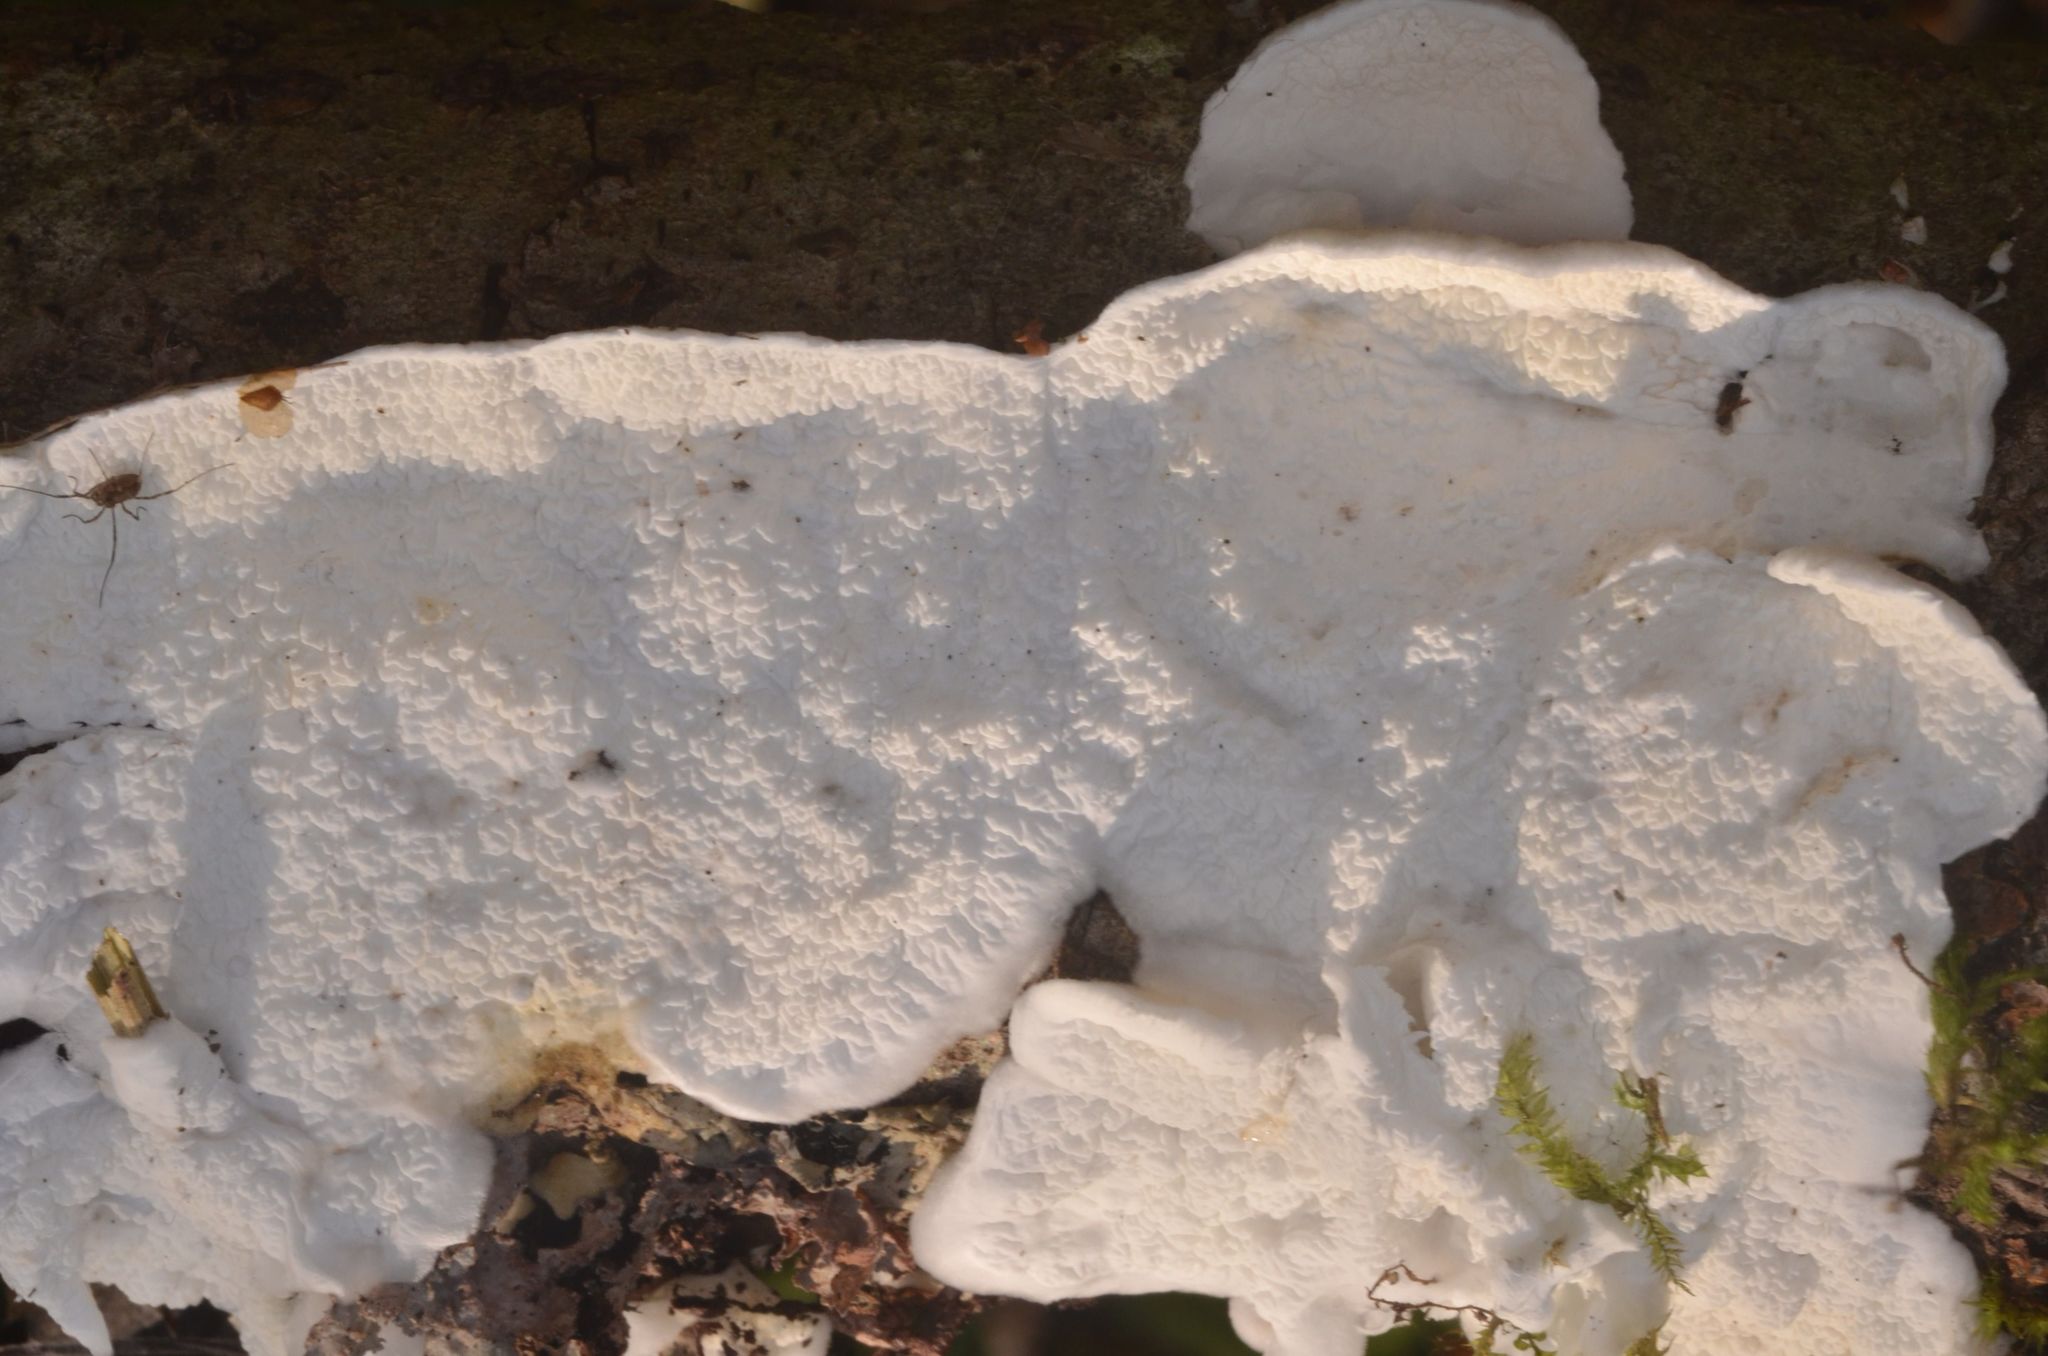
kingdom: Fungi
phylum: Basidiomycota
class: Agaricomycetes
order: Agaricales
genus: Plicatura
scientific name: Plicatura nivea
